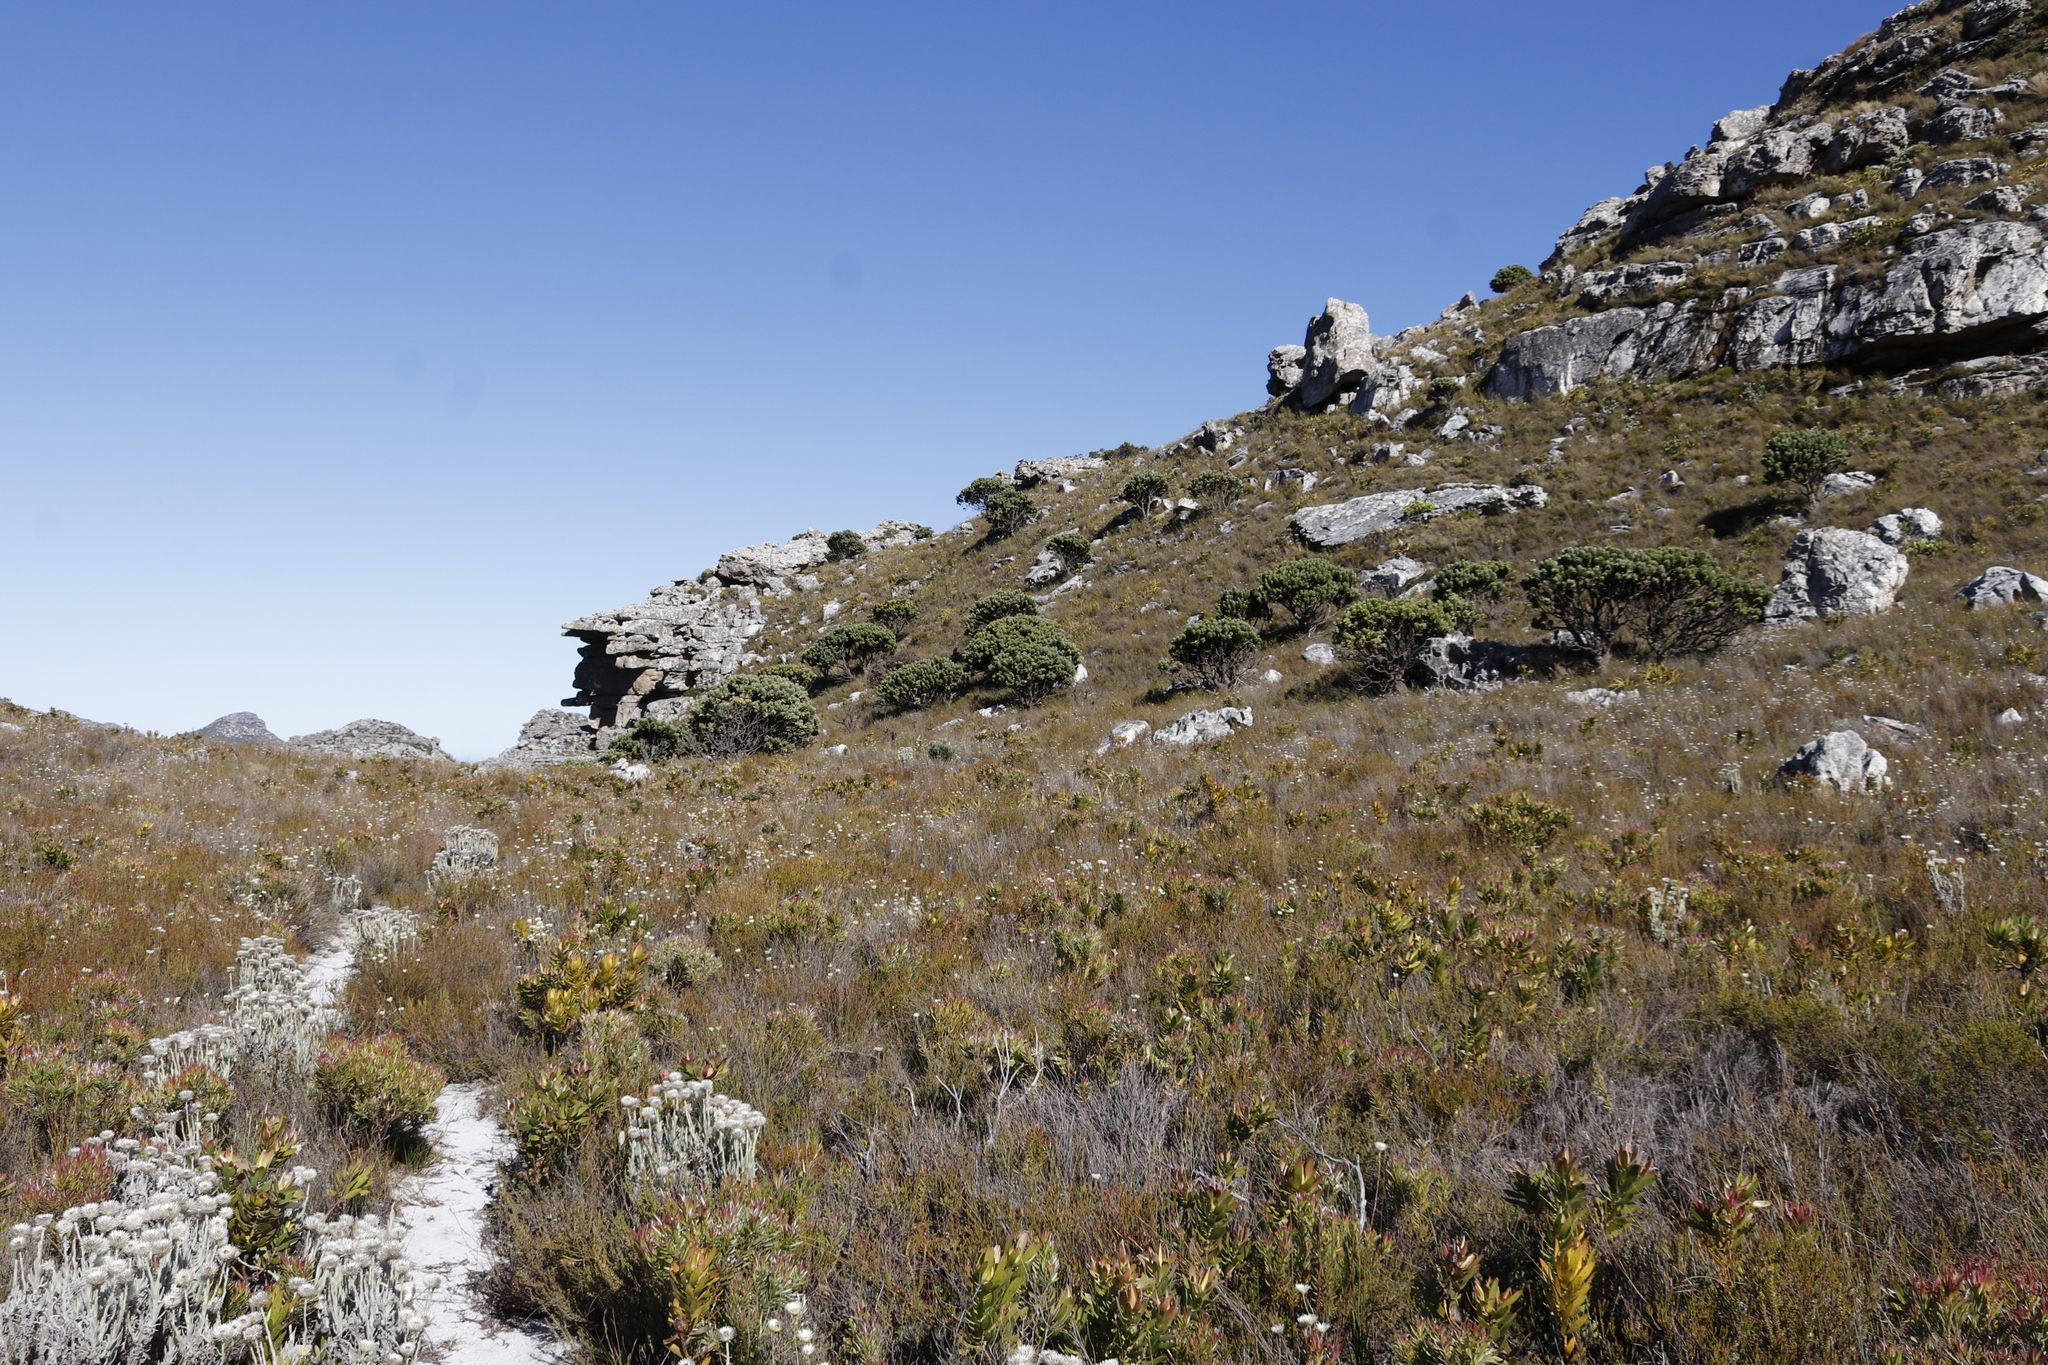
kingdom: Plantae
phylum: Tracheophyta
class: Magnoliopsida
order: Proteales
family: Proteaceae
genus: Mimetes
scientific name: Mimetes fimbriifolius
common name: Fringed bottlebrush
